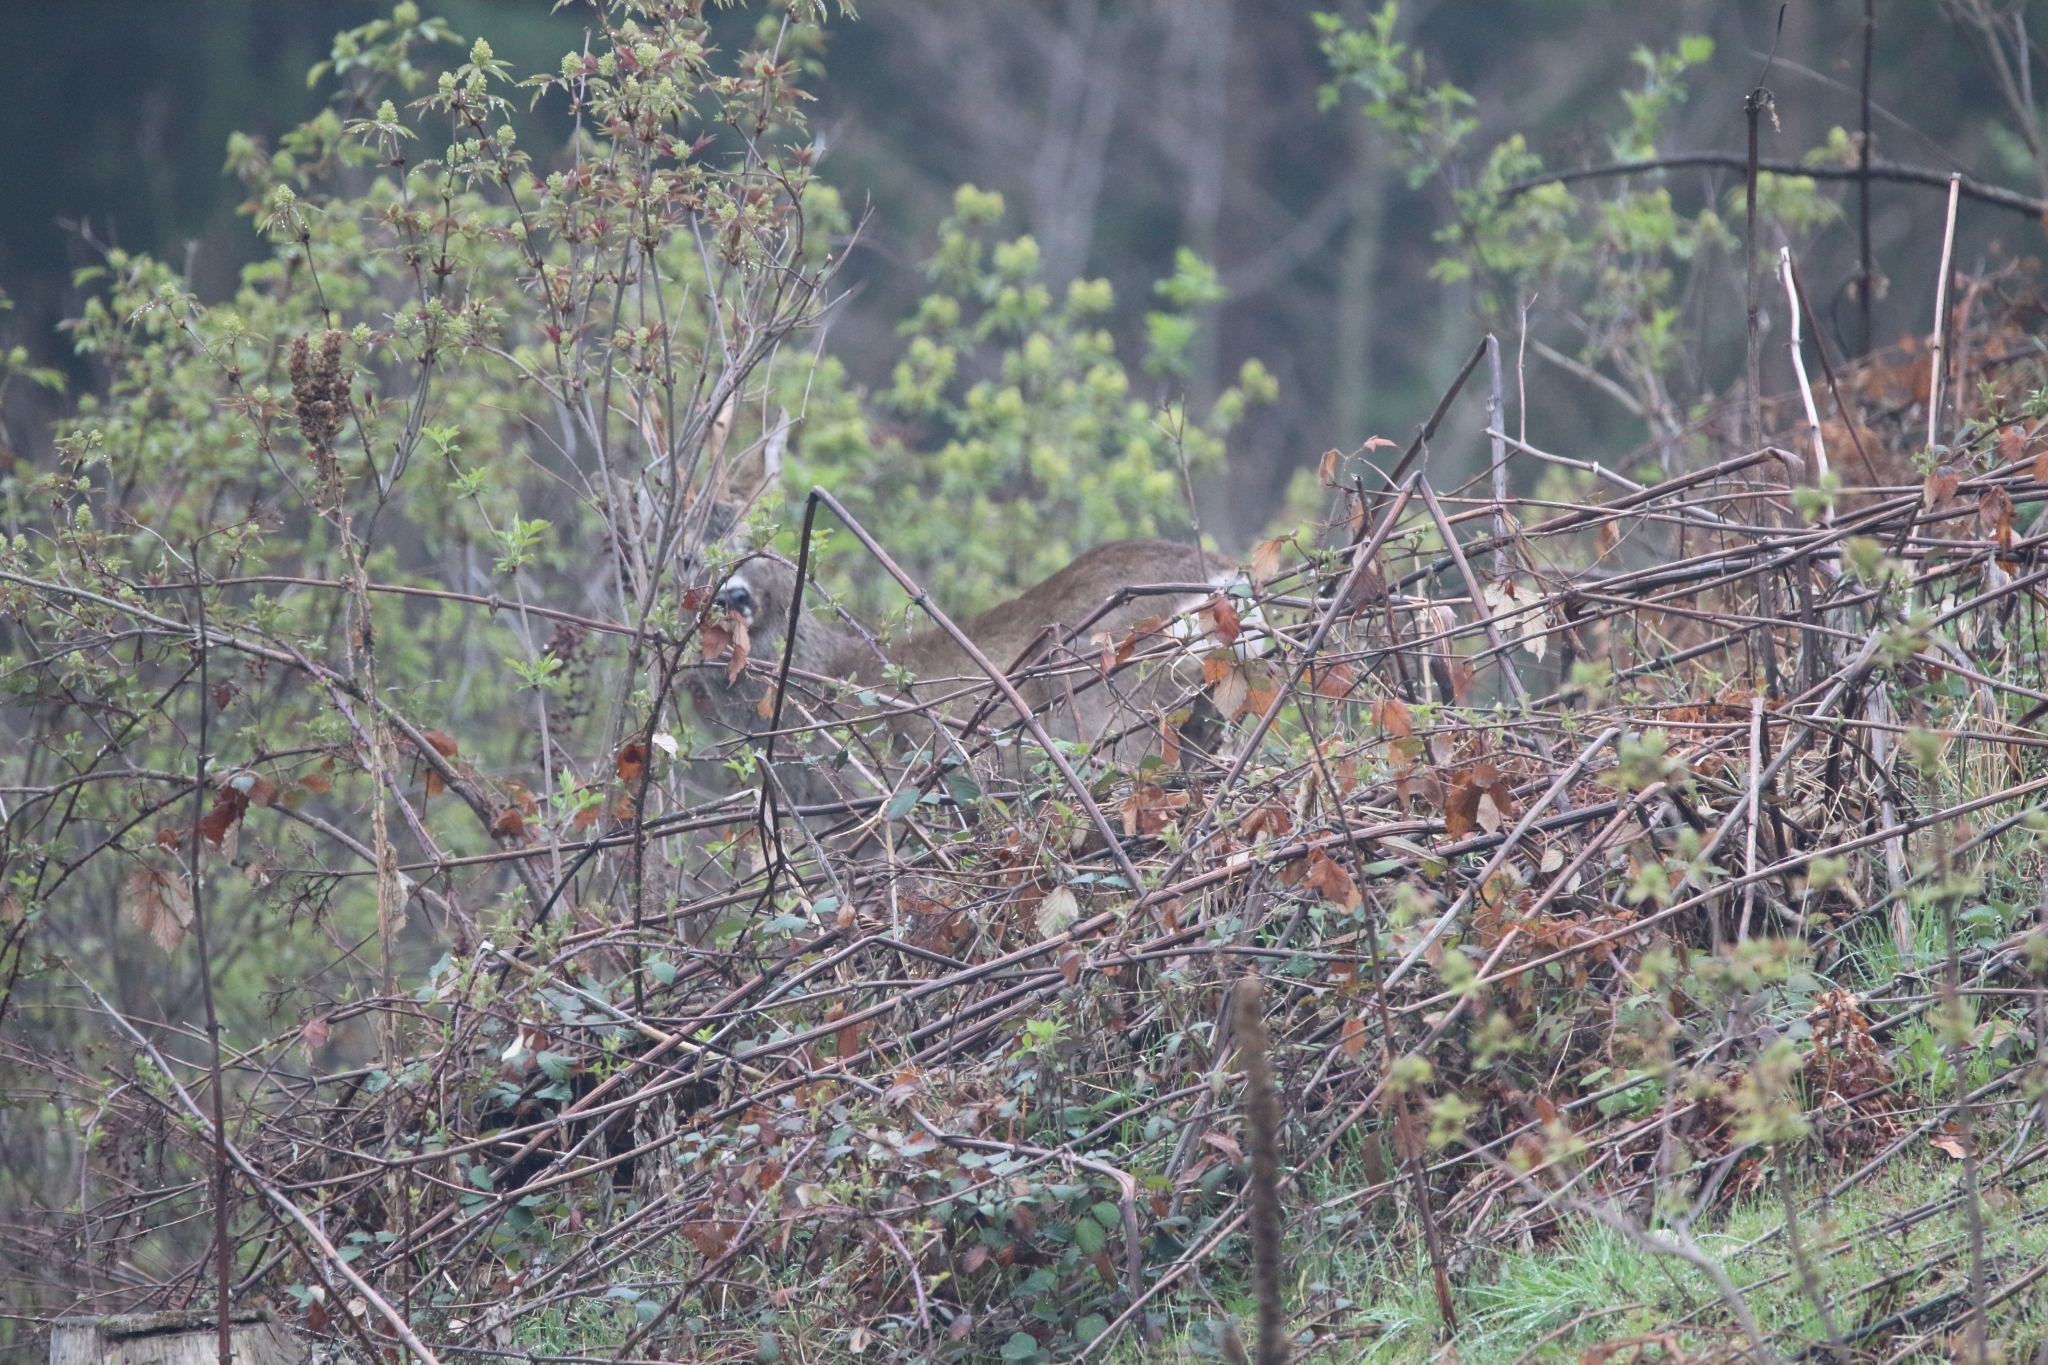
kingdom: Animalia
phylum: Chordata
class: Mammalia
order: Artiodactyla
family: Cervidae
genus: Capreolus
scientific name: Capreolus capreolus
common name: Western roe deer
